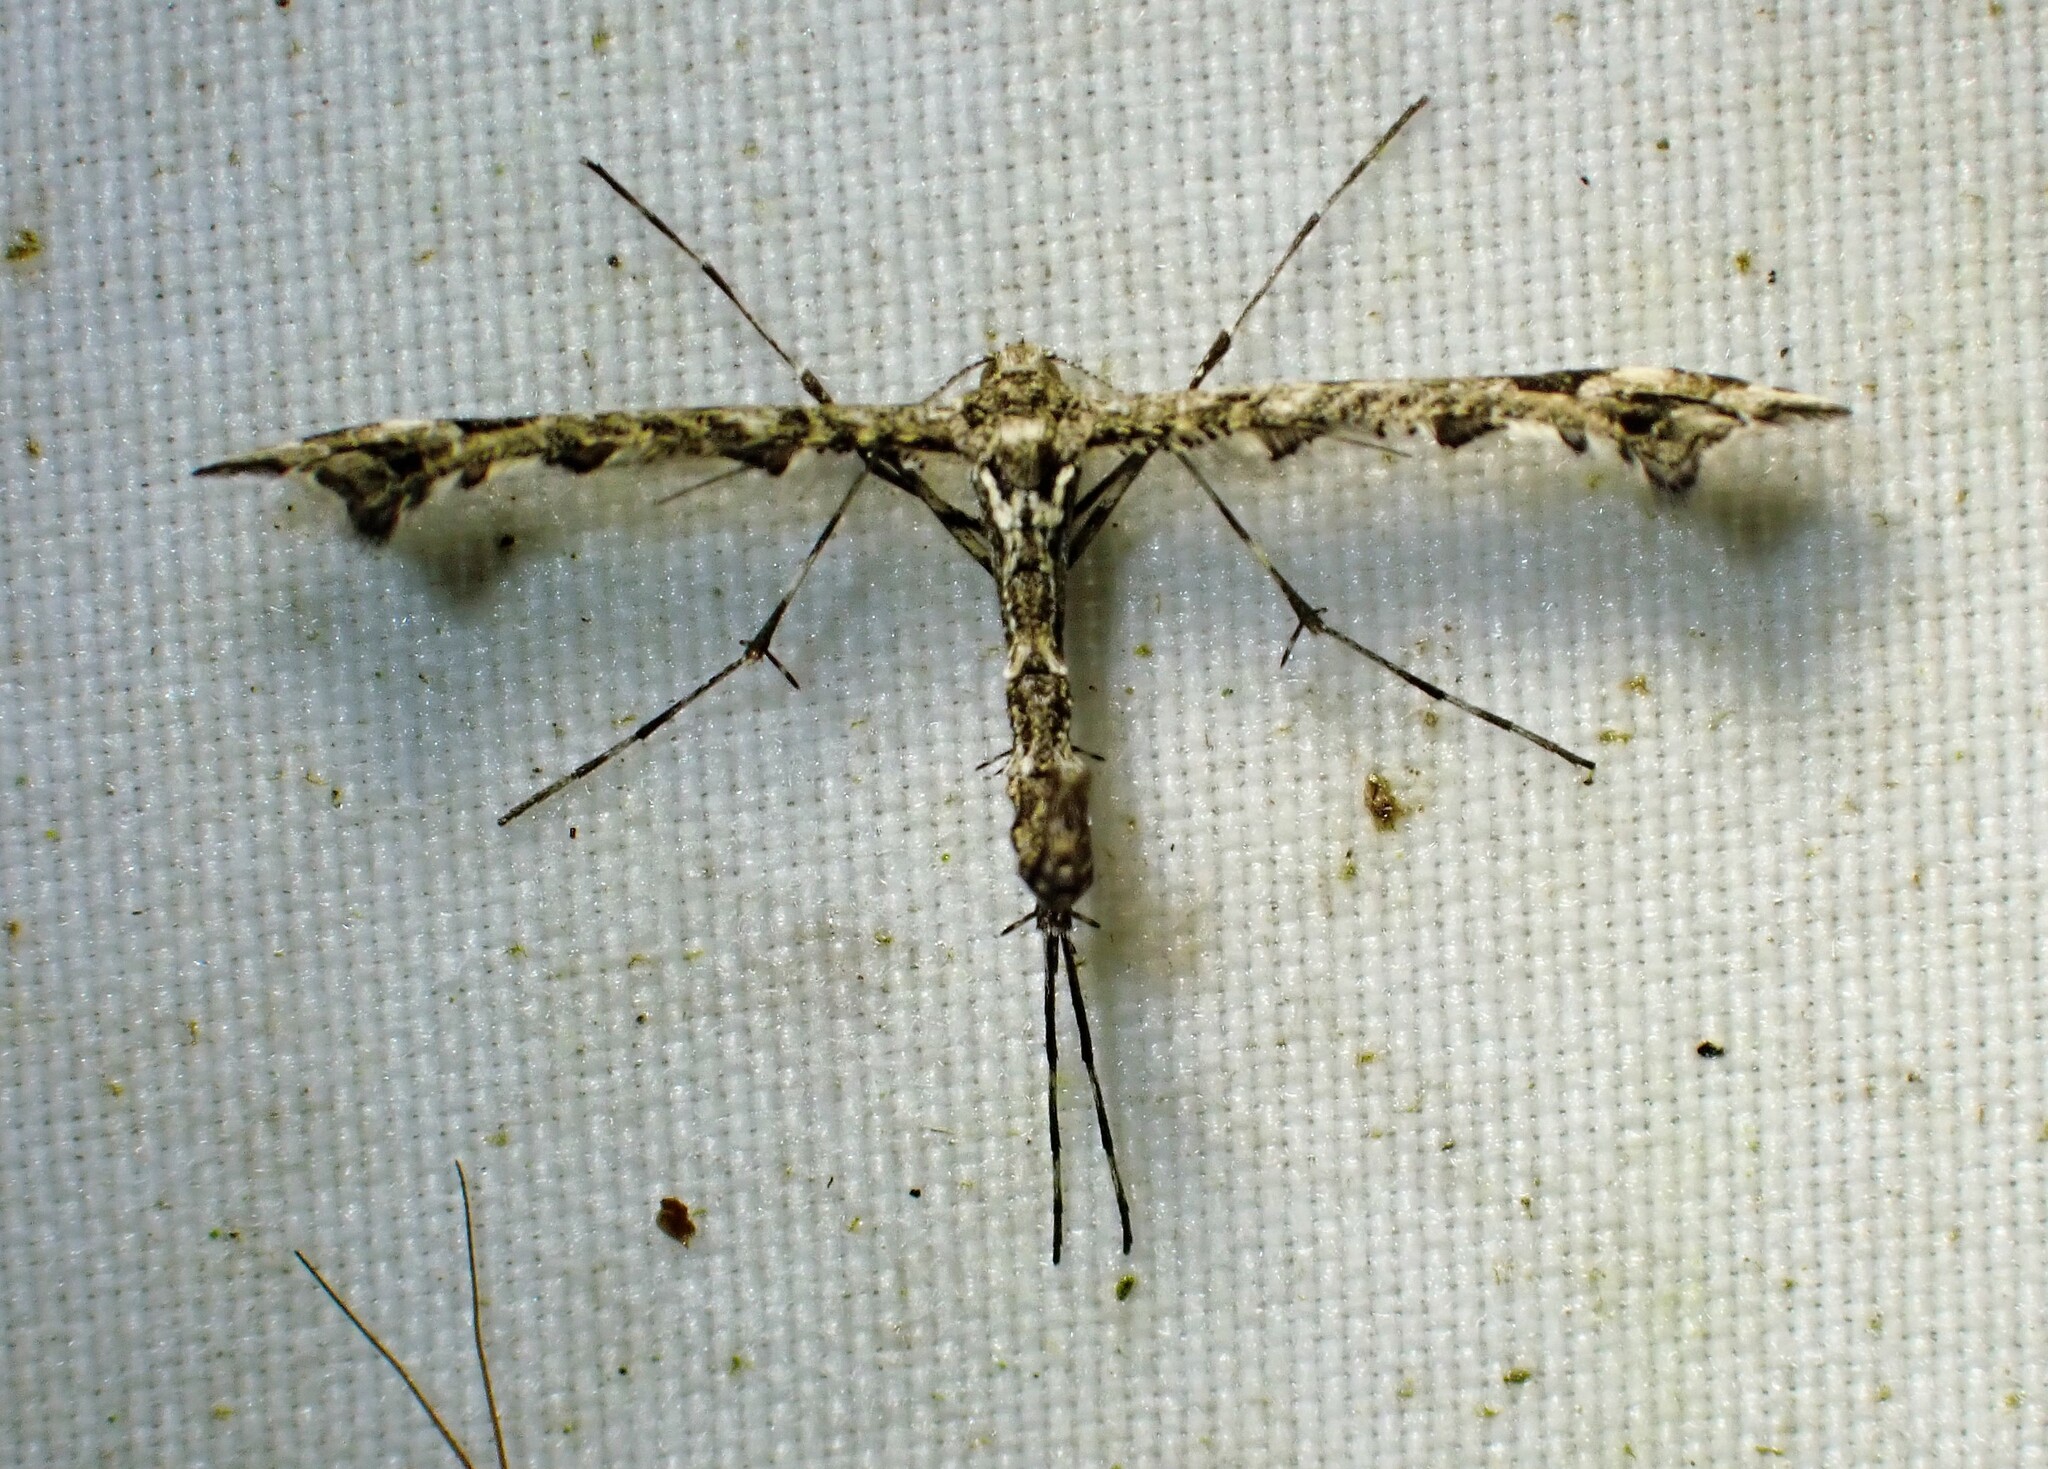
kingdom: Animalia
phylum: Arthropoda
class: Insecta
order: Lepidoptera
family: Pterophoridae
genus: Amblyptilia
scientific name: Amblyptilia pica
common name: Geranium plume moth
